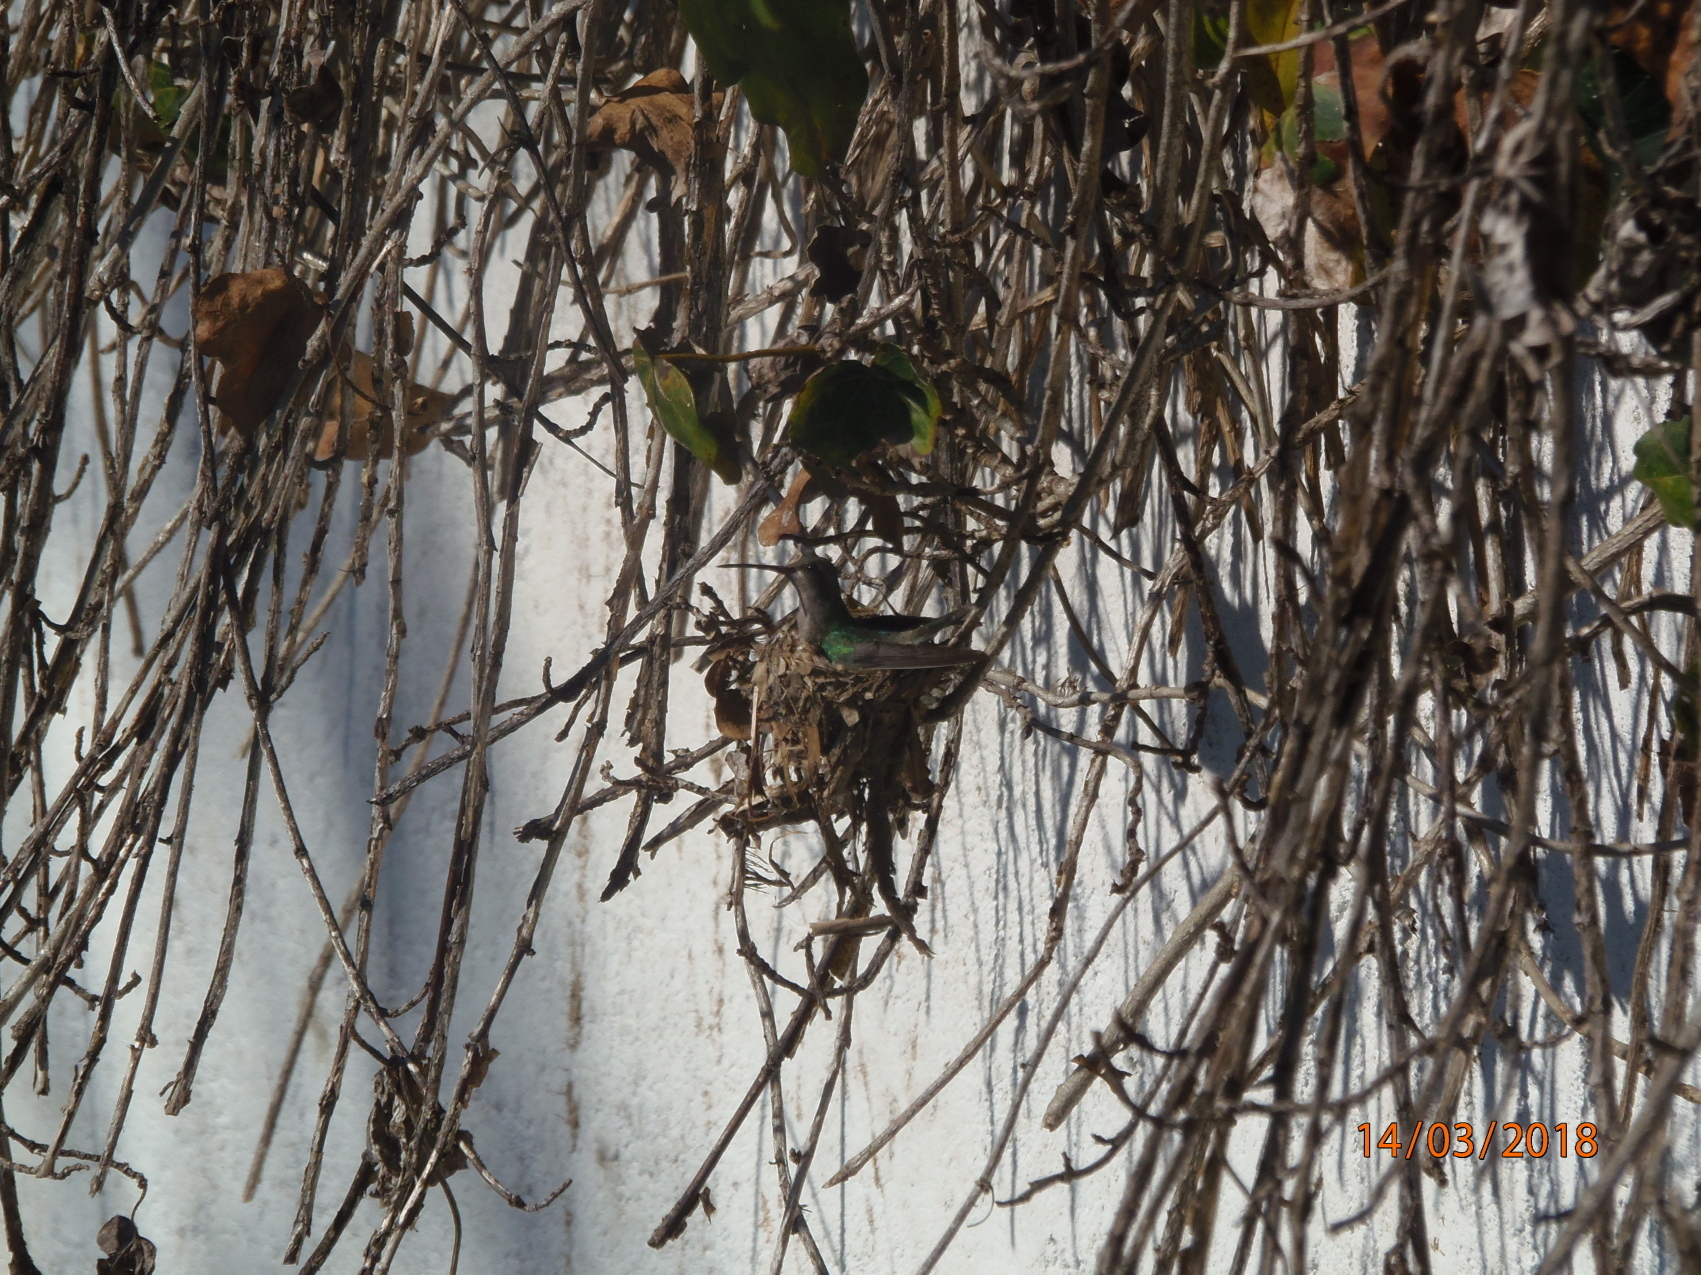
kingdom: Animalia
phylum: Chordata
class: Aves
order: Apodiformes
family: Trochilidae
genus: Cynanthus
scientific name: Cynanthus latirostris
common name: Broad-billed hummingbird
